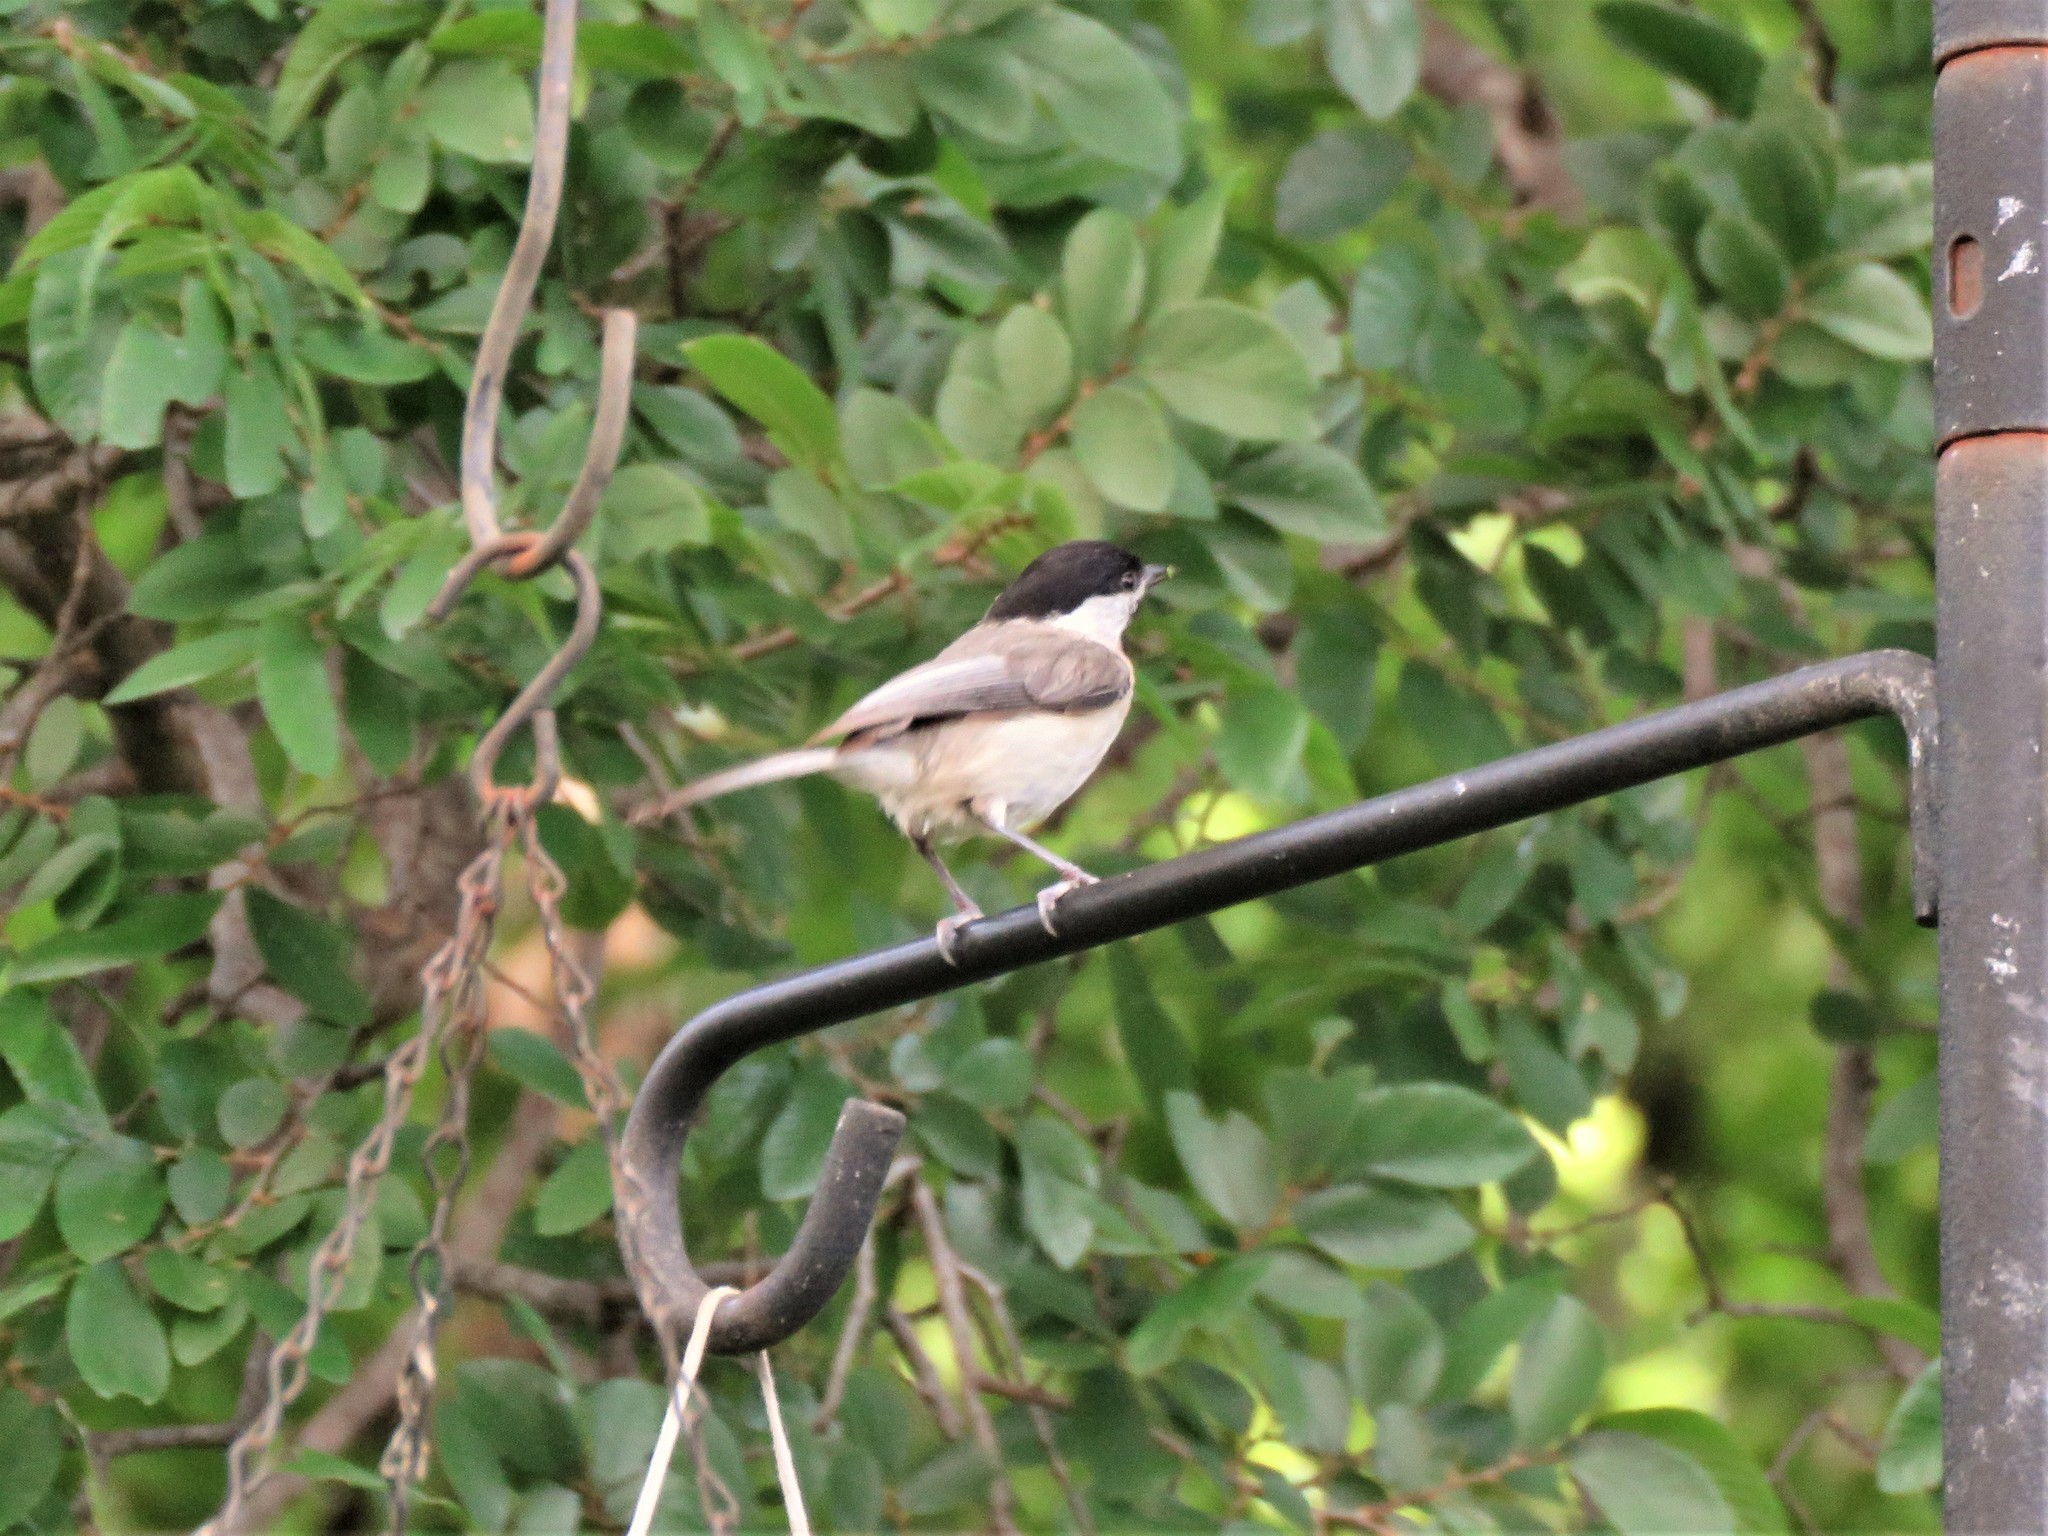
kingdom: Animalia
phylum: Chordata
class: Aves
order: Passeriformes
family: Paridae
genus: Poecile
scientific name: Poecile carolinensis
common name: Carolina chickadee
